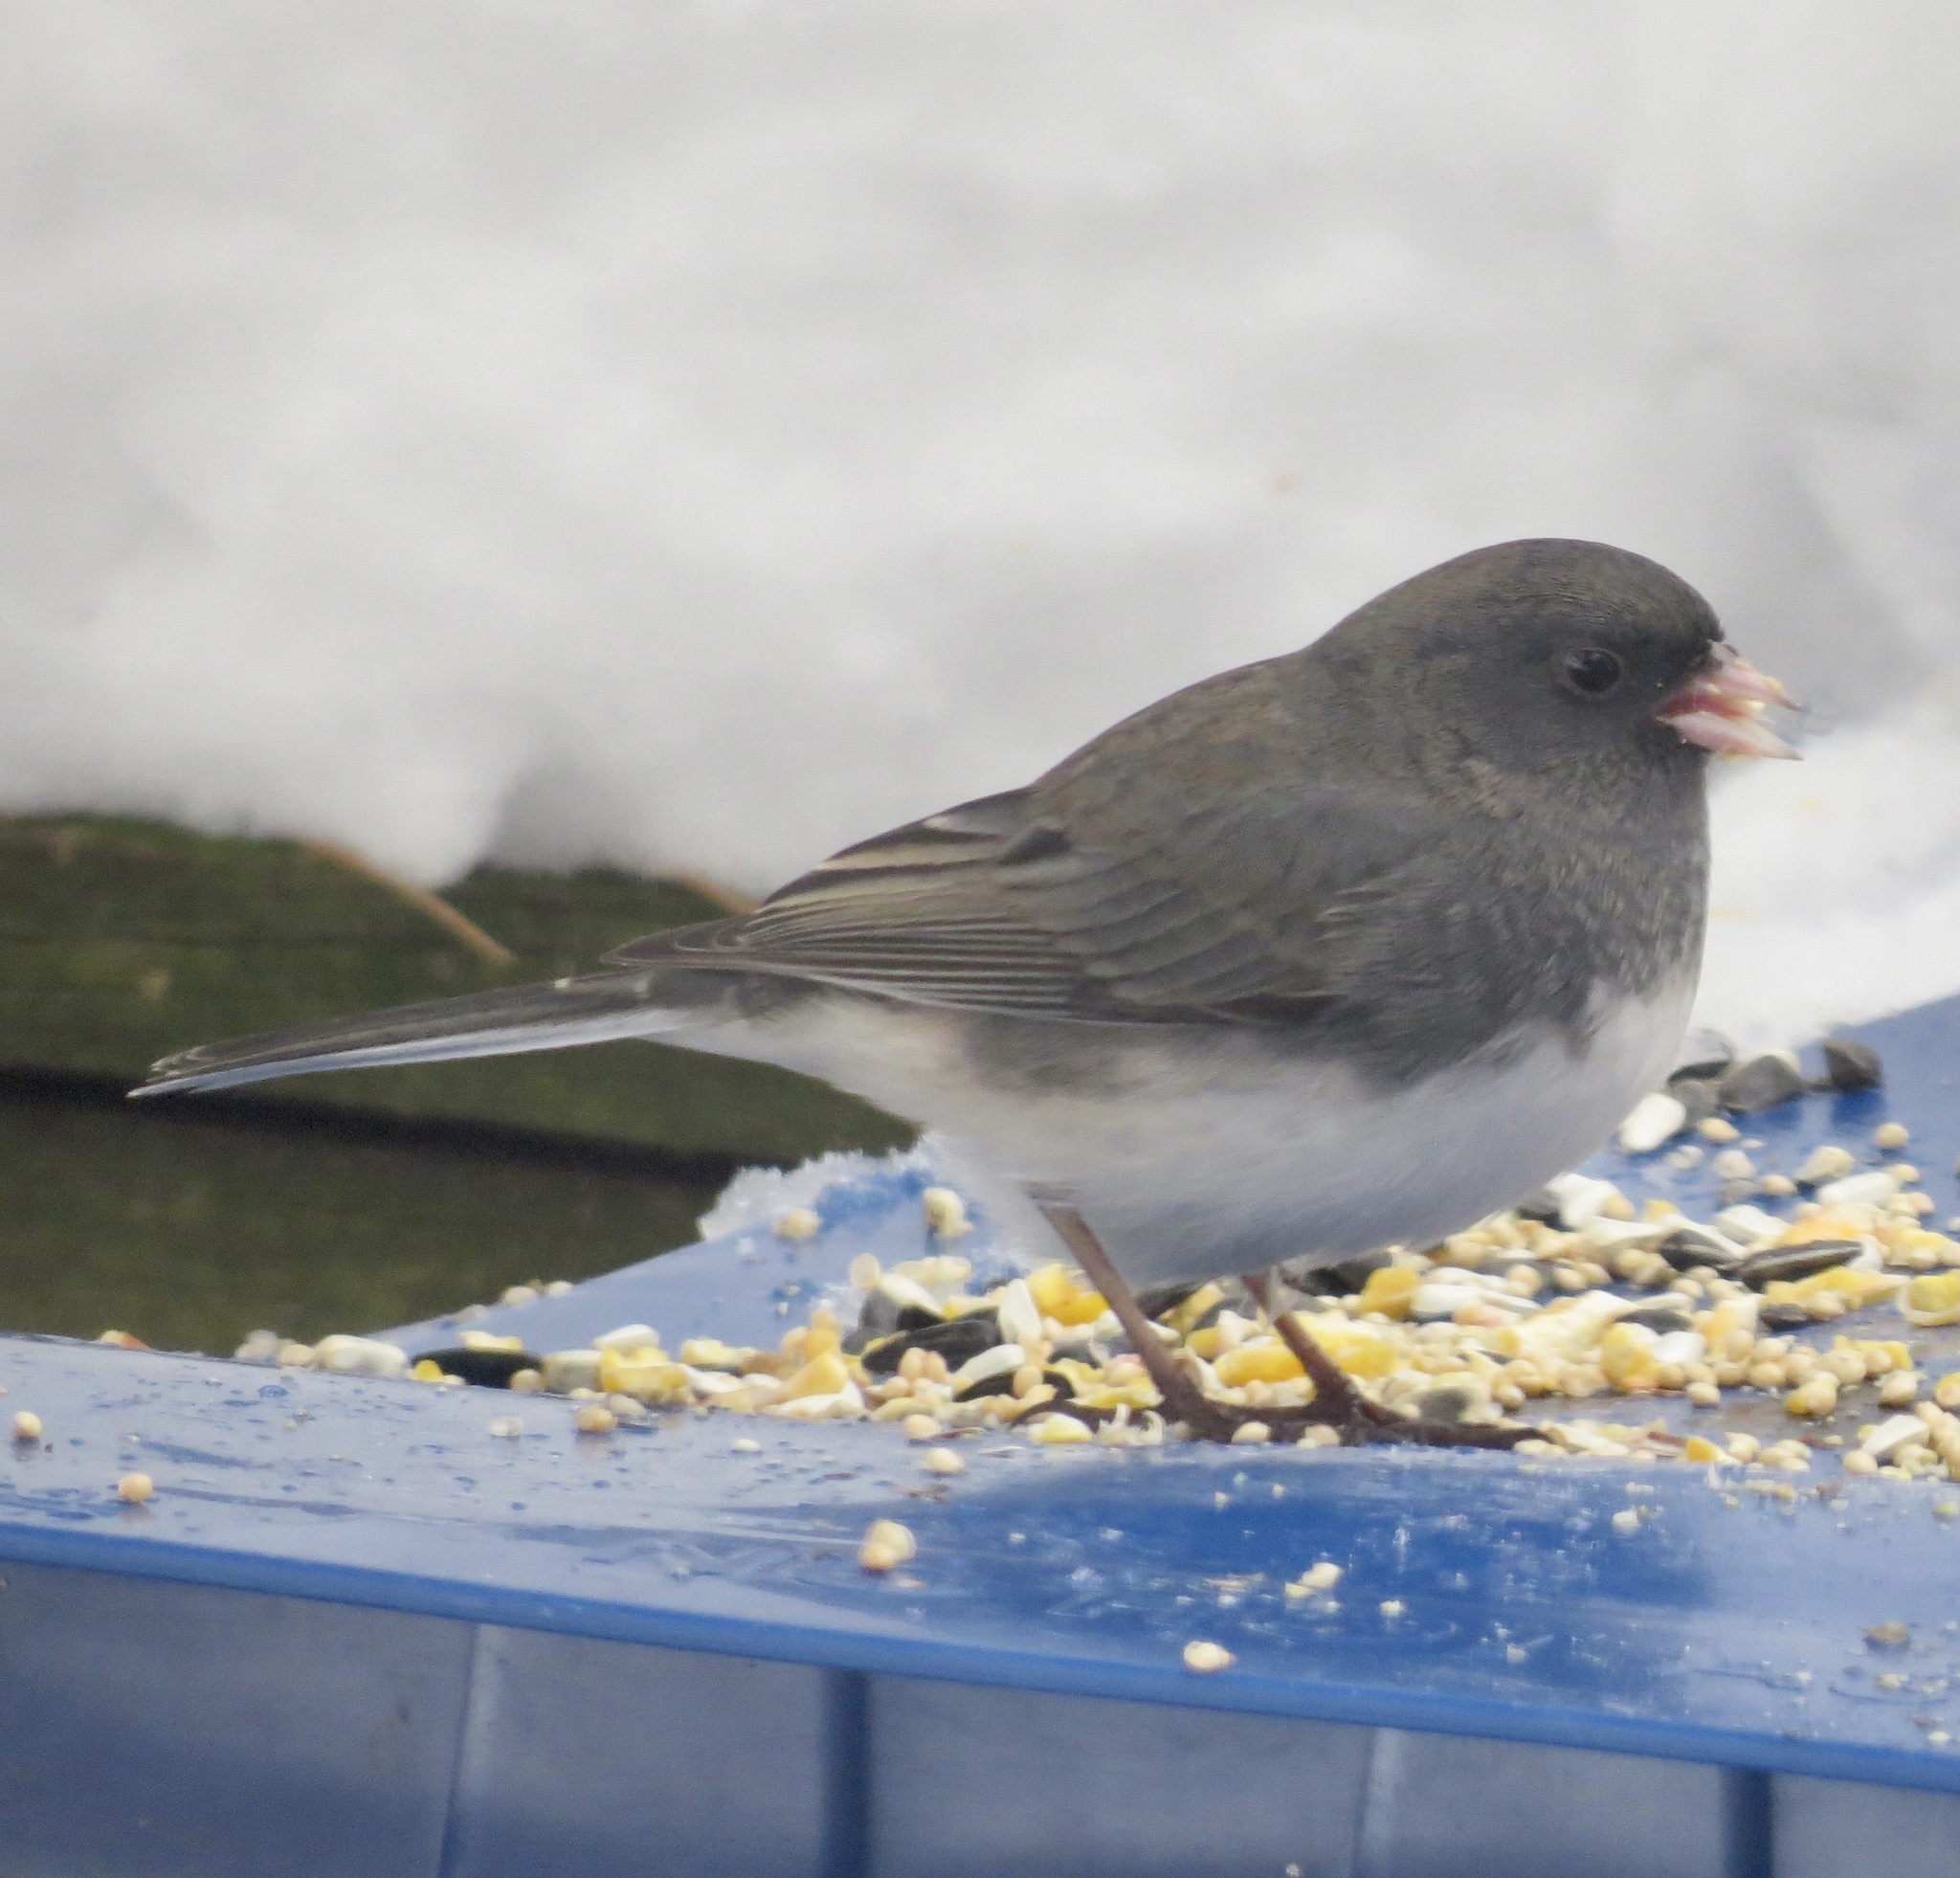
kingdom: Animalia
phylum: Chordata
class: Aves
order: Passeriformes
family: Passerellidae
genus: Junco
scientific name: Junco hyemalis
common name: Dark-eyed junco
